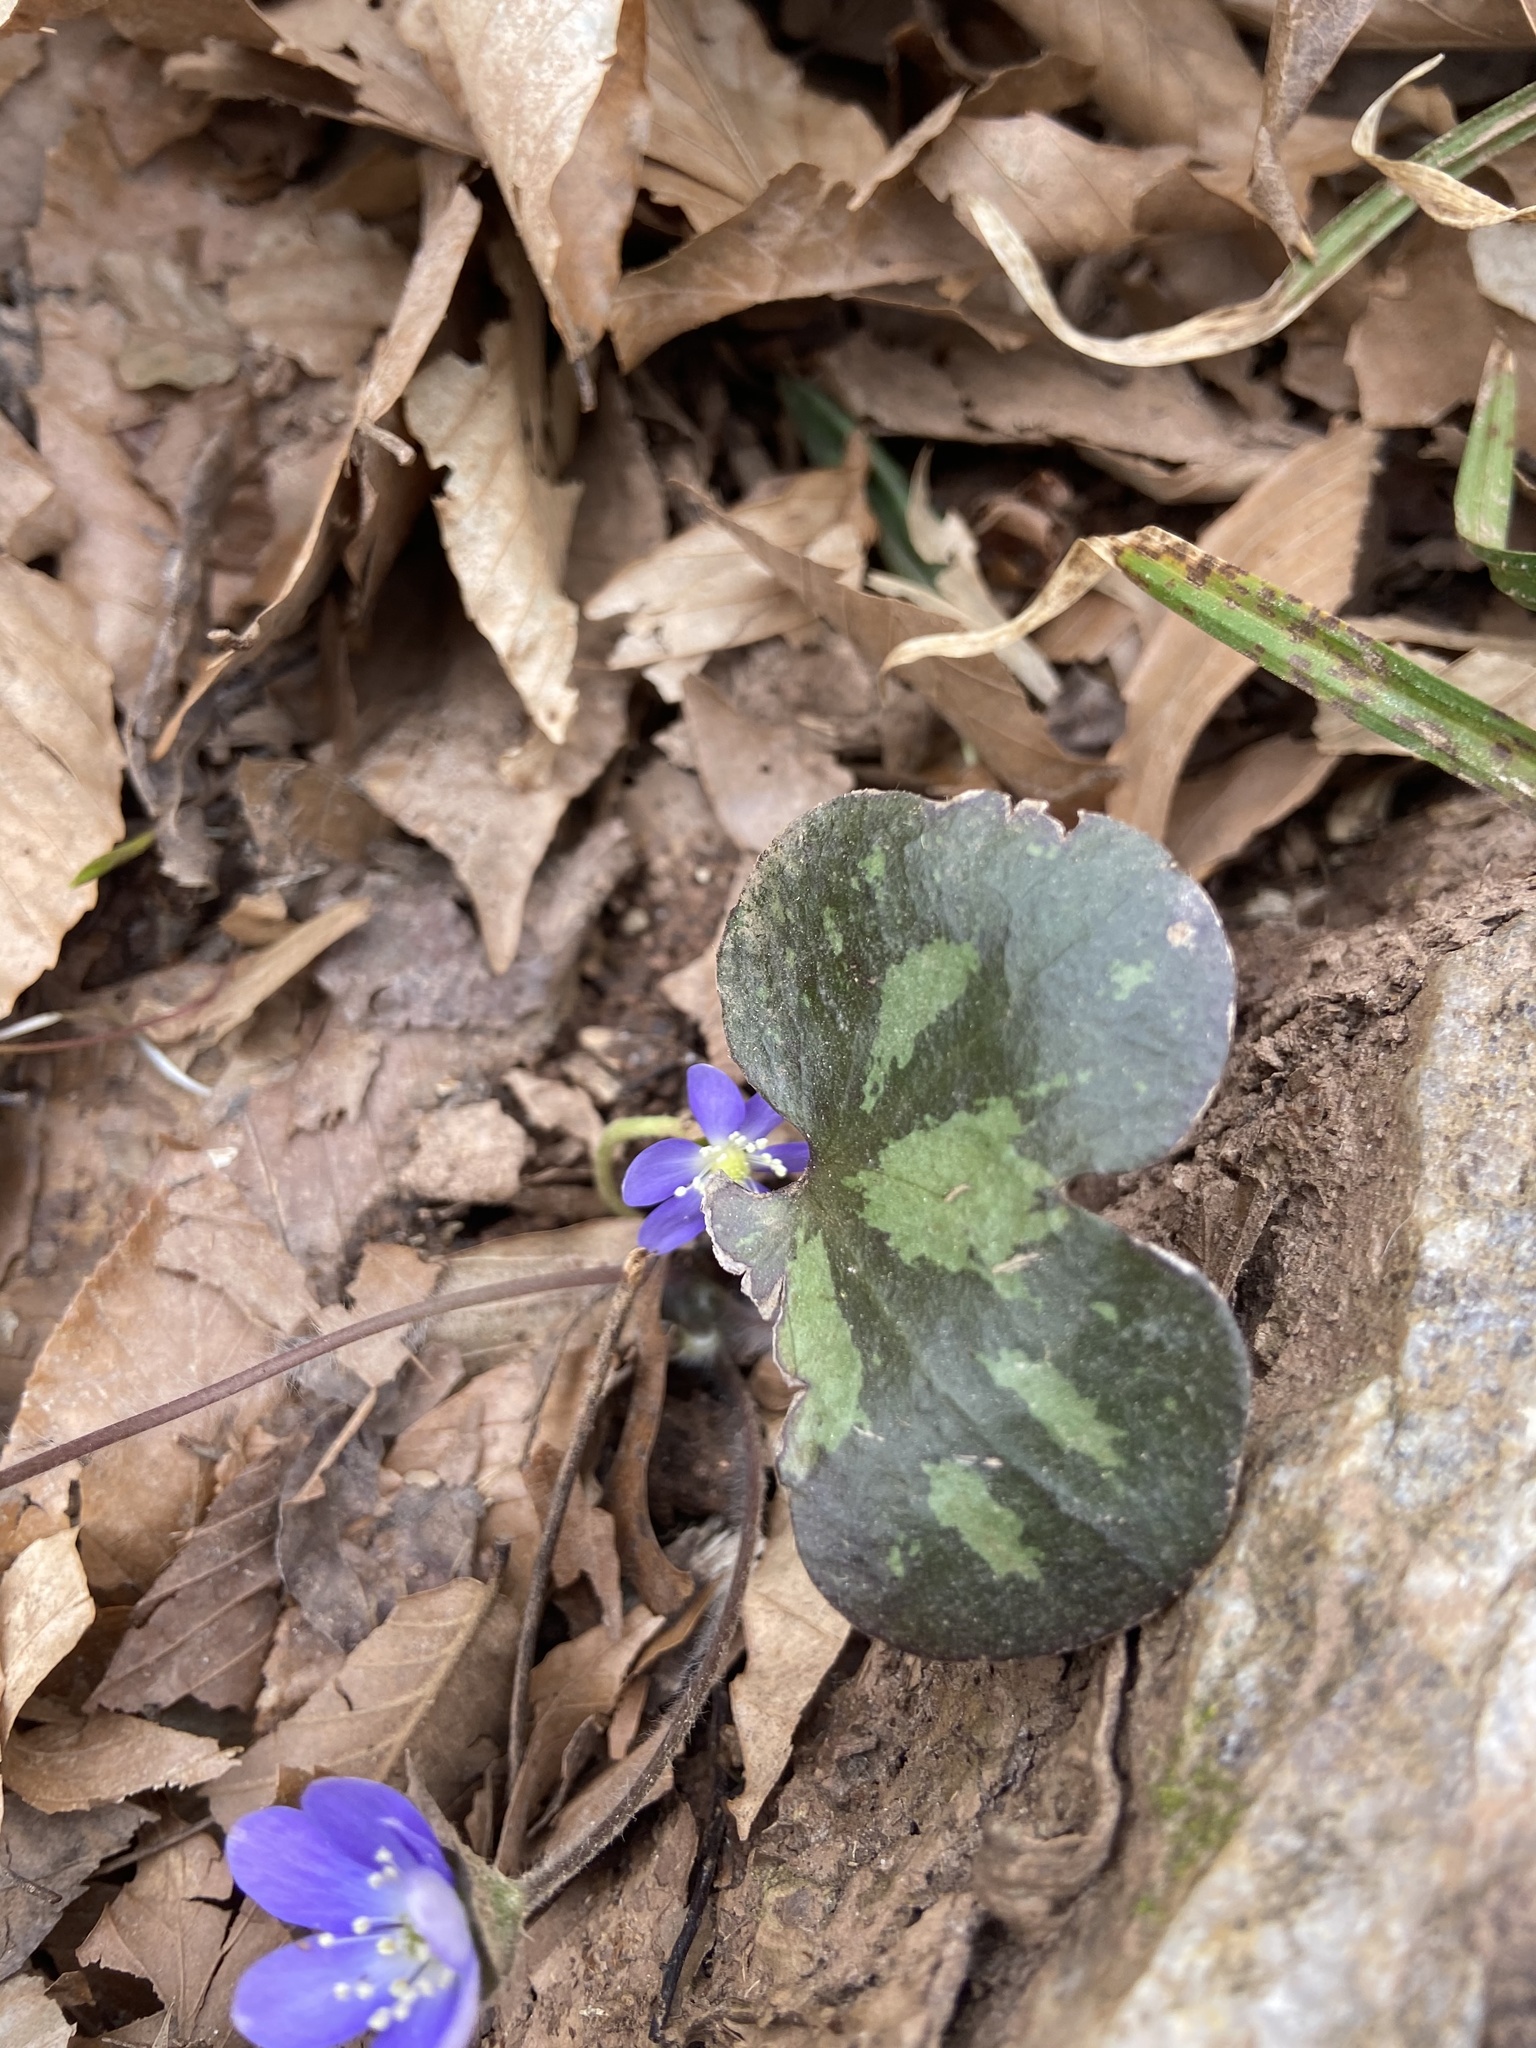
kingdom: Plantae
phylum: Tracheophyta
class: Magnoliopsida
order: Ranunculales
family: Ranunculaceae
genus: Hepatica
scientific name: Hepatica americana
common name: American hepatica
